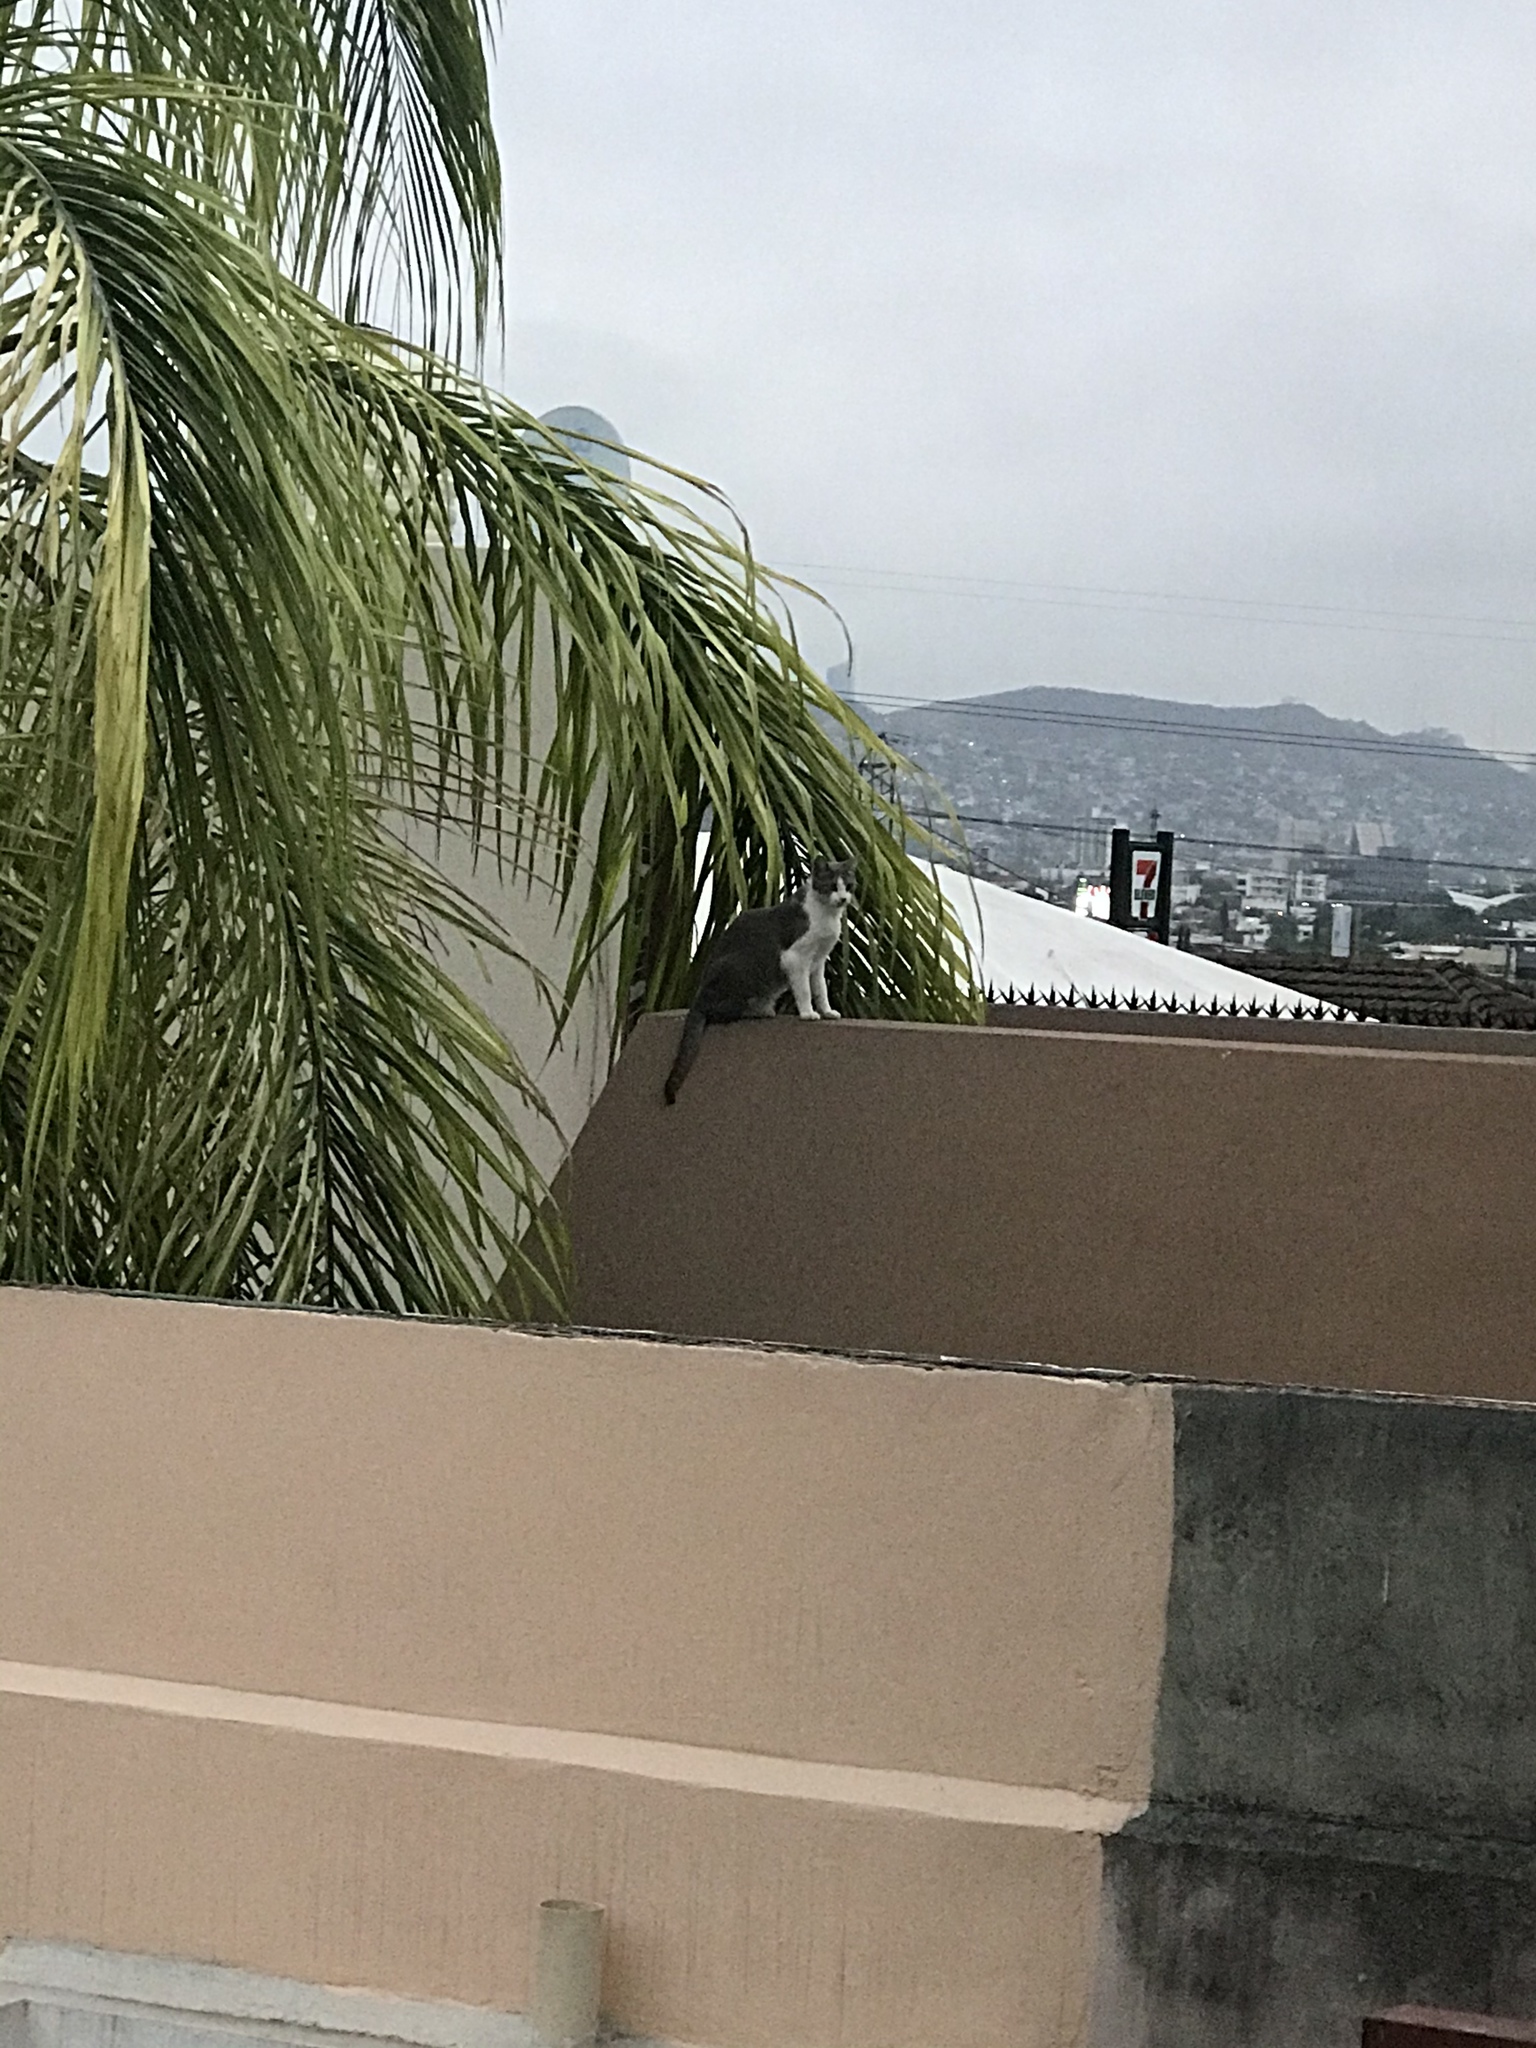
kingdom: Animalia
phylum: Chordata
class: Mammalia
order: Carnivora
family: Felidae
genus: Felis
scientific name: Felis catus
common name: Domestic cat
